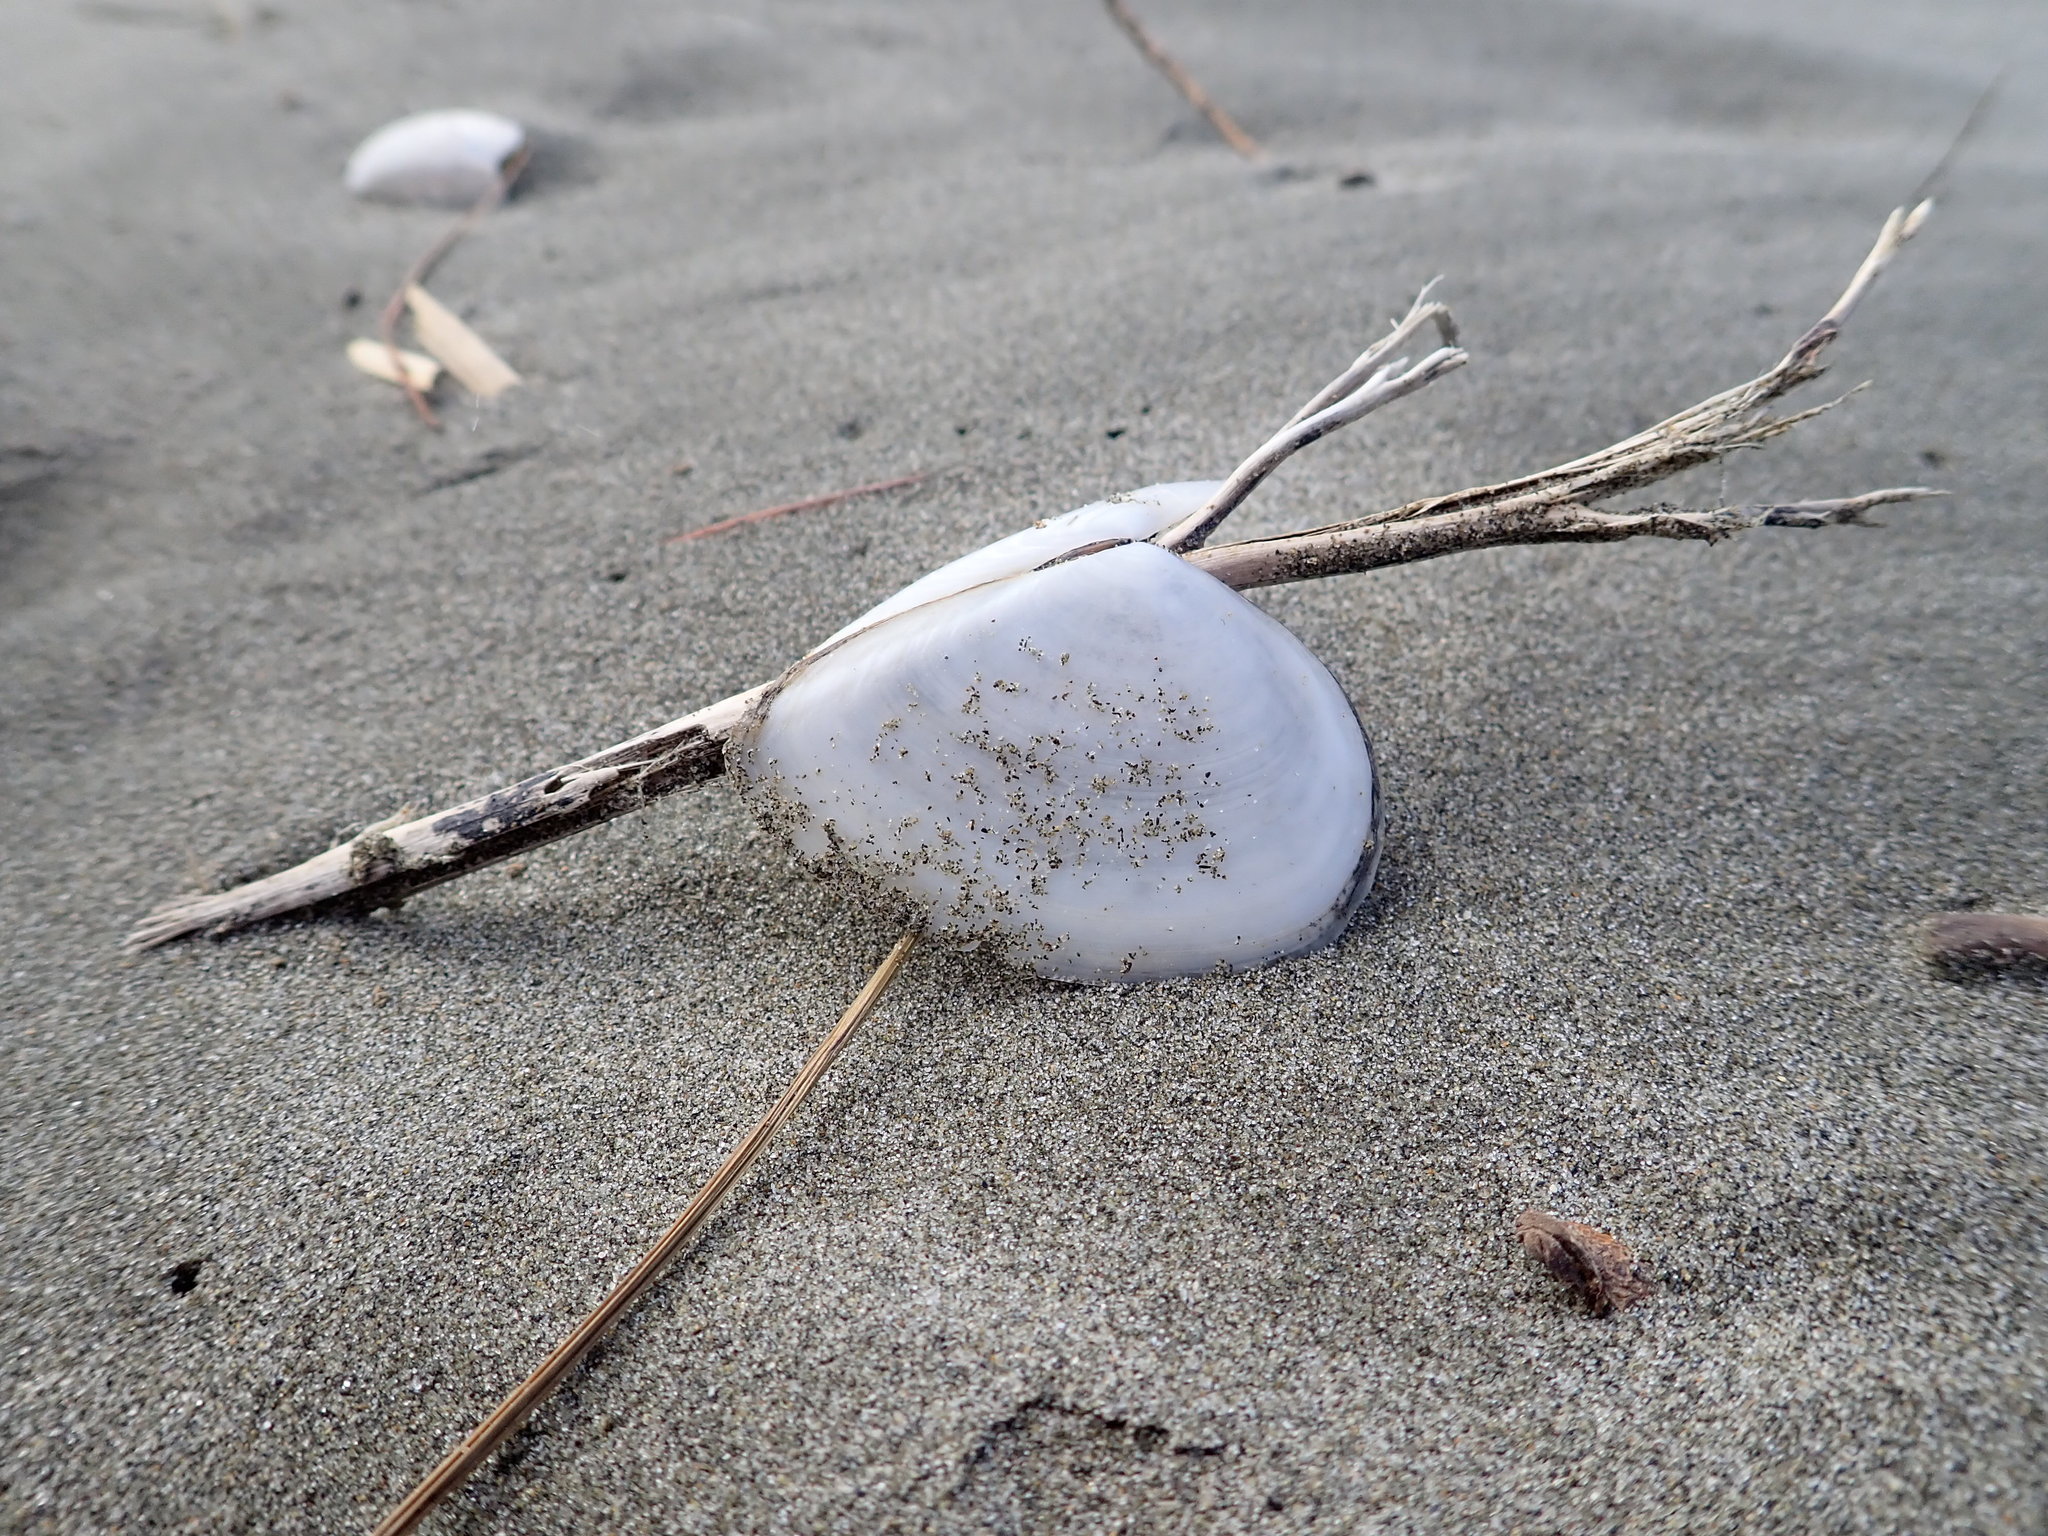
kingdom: Animalia
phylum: Mollusca
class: Bivalvia
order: Cardiida
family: Tellinidae
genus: Bartschicoma
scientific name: Bartschicoma gaimardi
